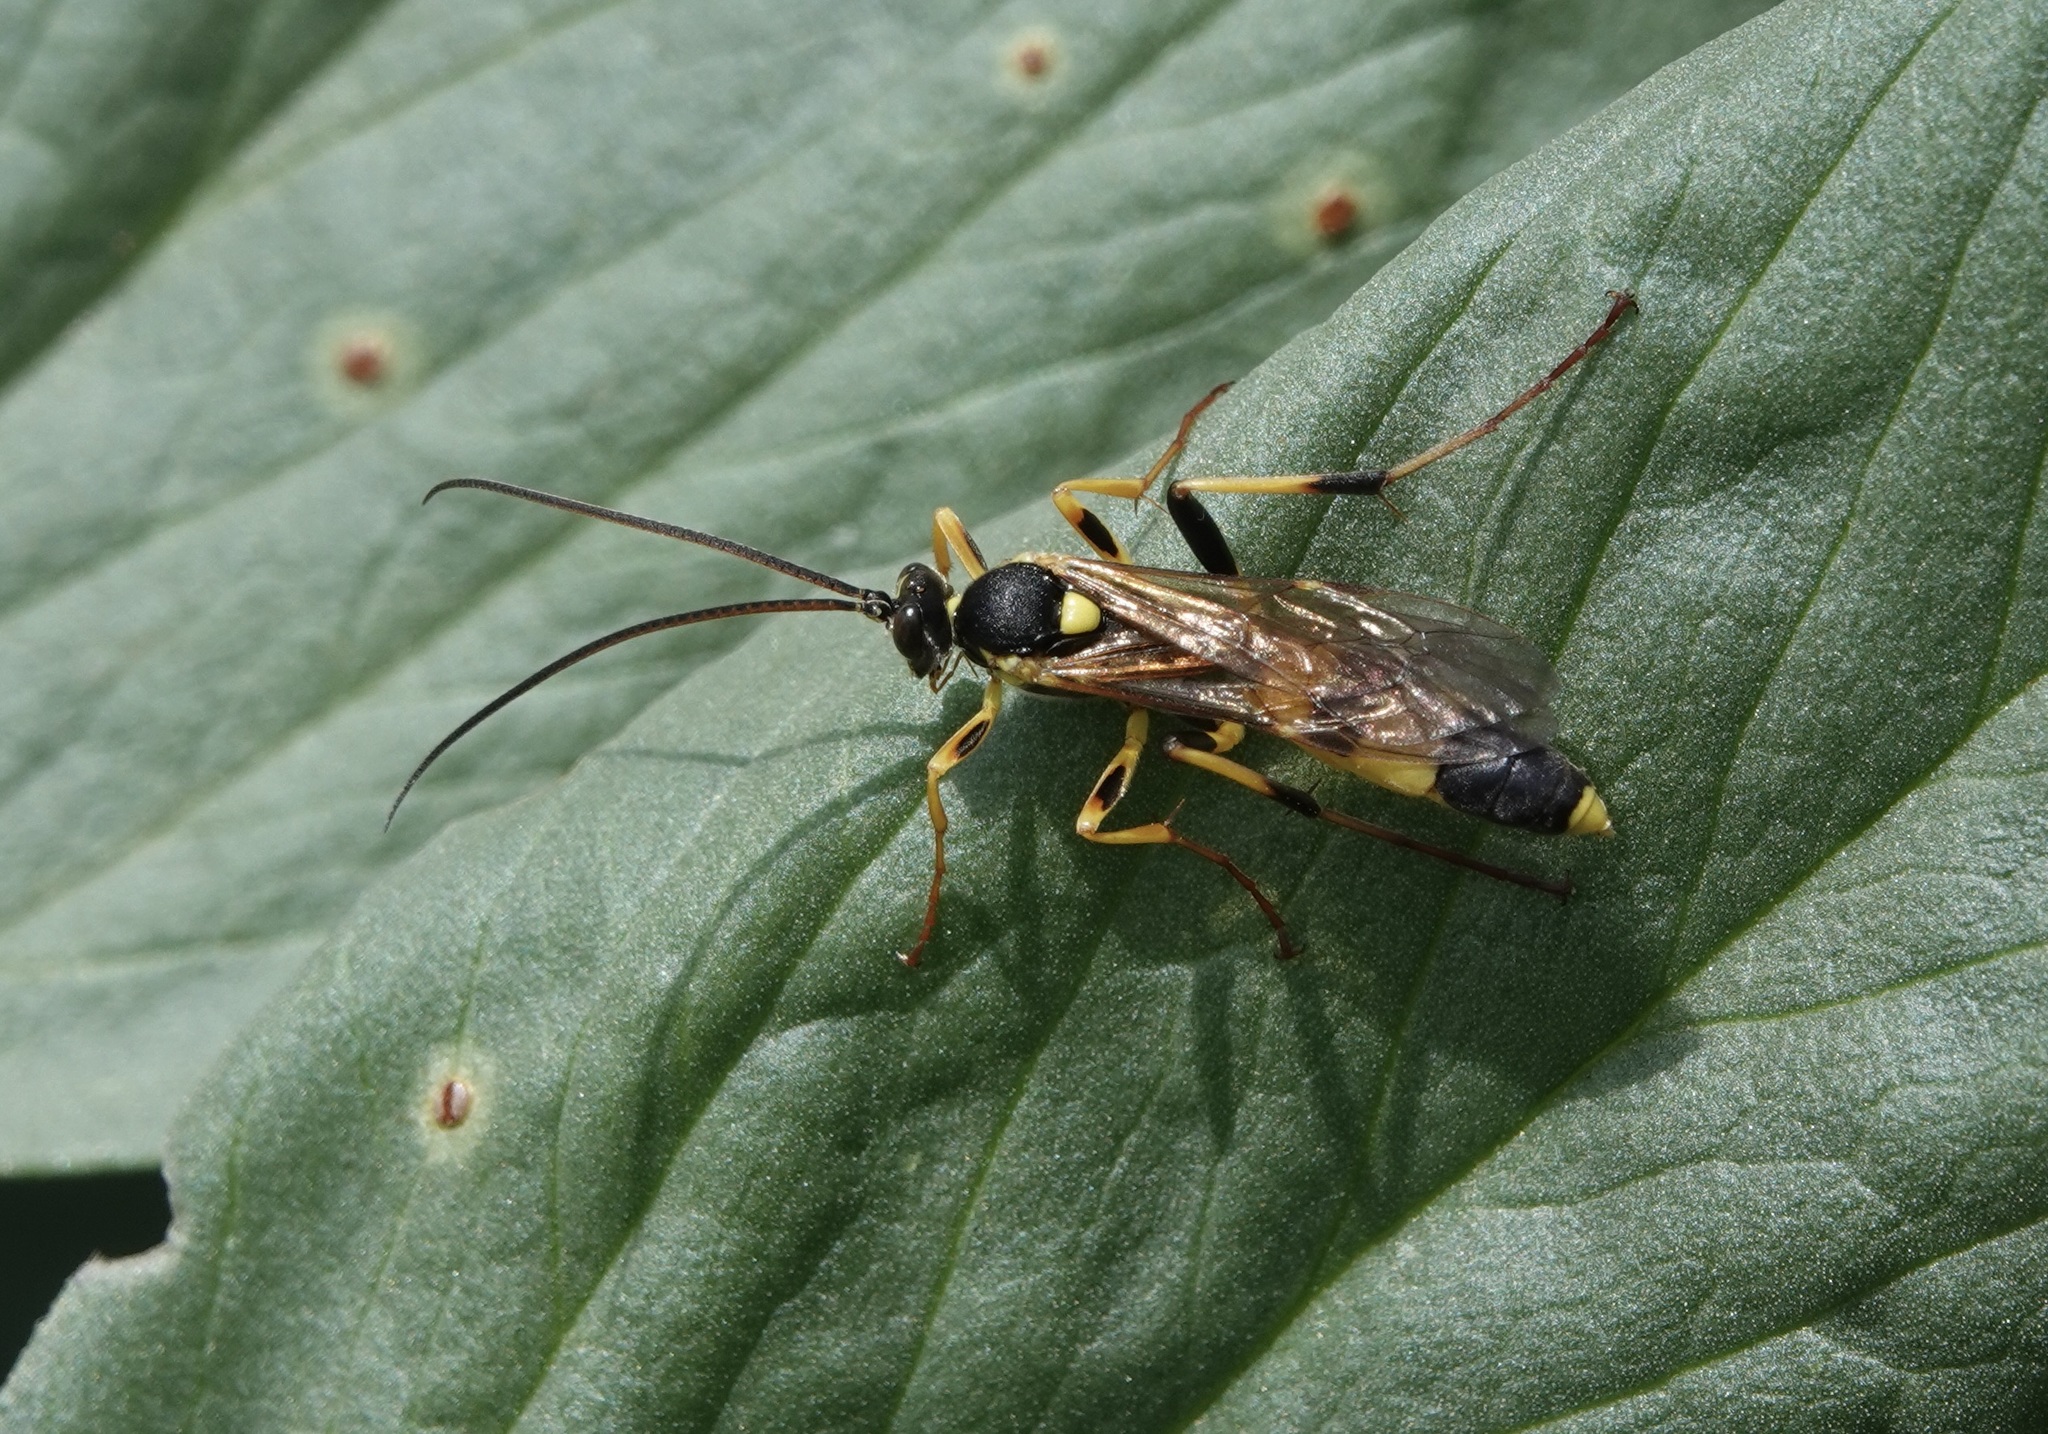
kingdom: Animalia
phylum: Arthropoda
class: Insecta
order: Hymenoptera
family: Ichneumonidae
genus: Amblyteles
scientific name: Amblyteles armatorius
